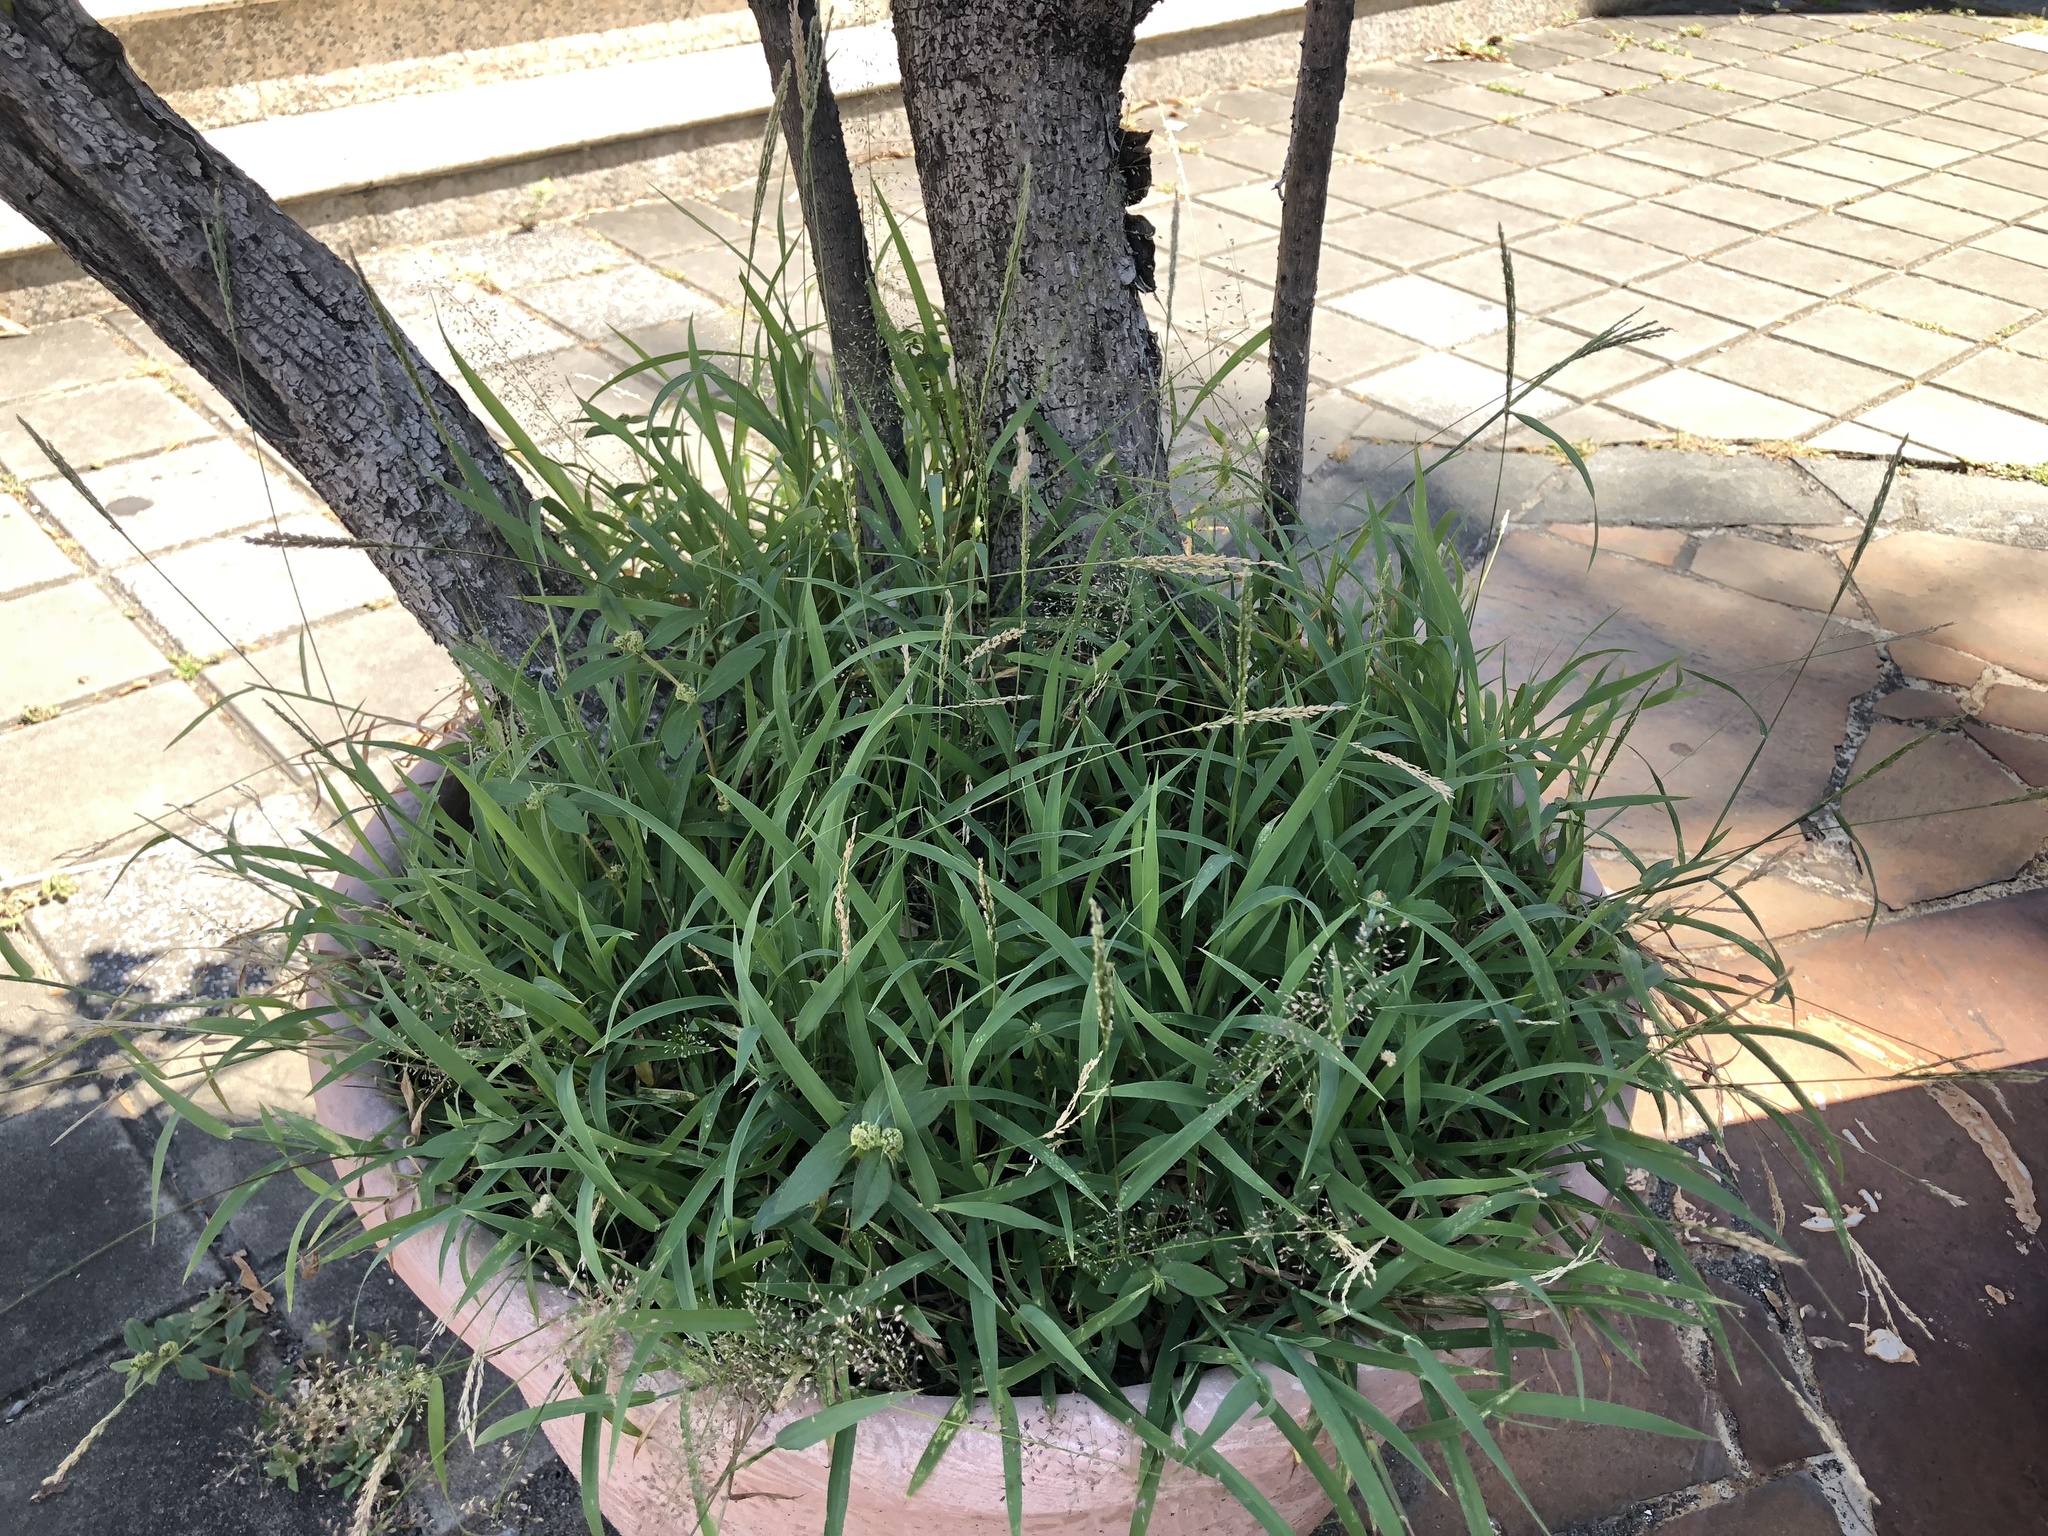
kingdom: Plantae
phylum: Tracheophyta
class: Liliopsida
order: Poales
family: Poaceae
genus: Digitaria
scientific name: Digitaria ciliaris
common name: Tropical finger-grass
